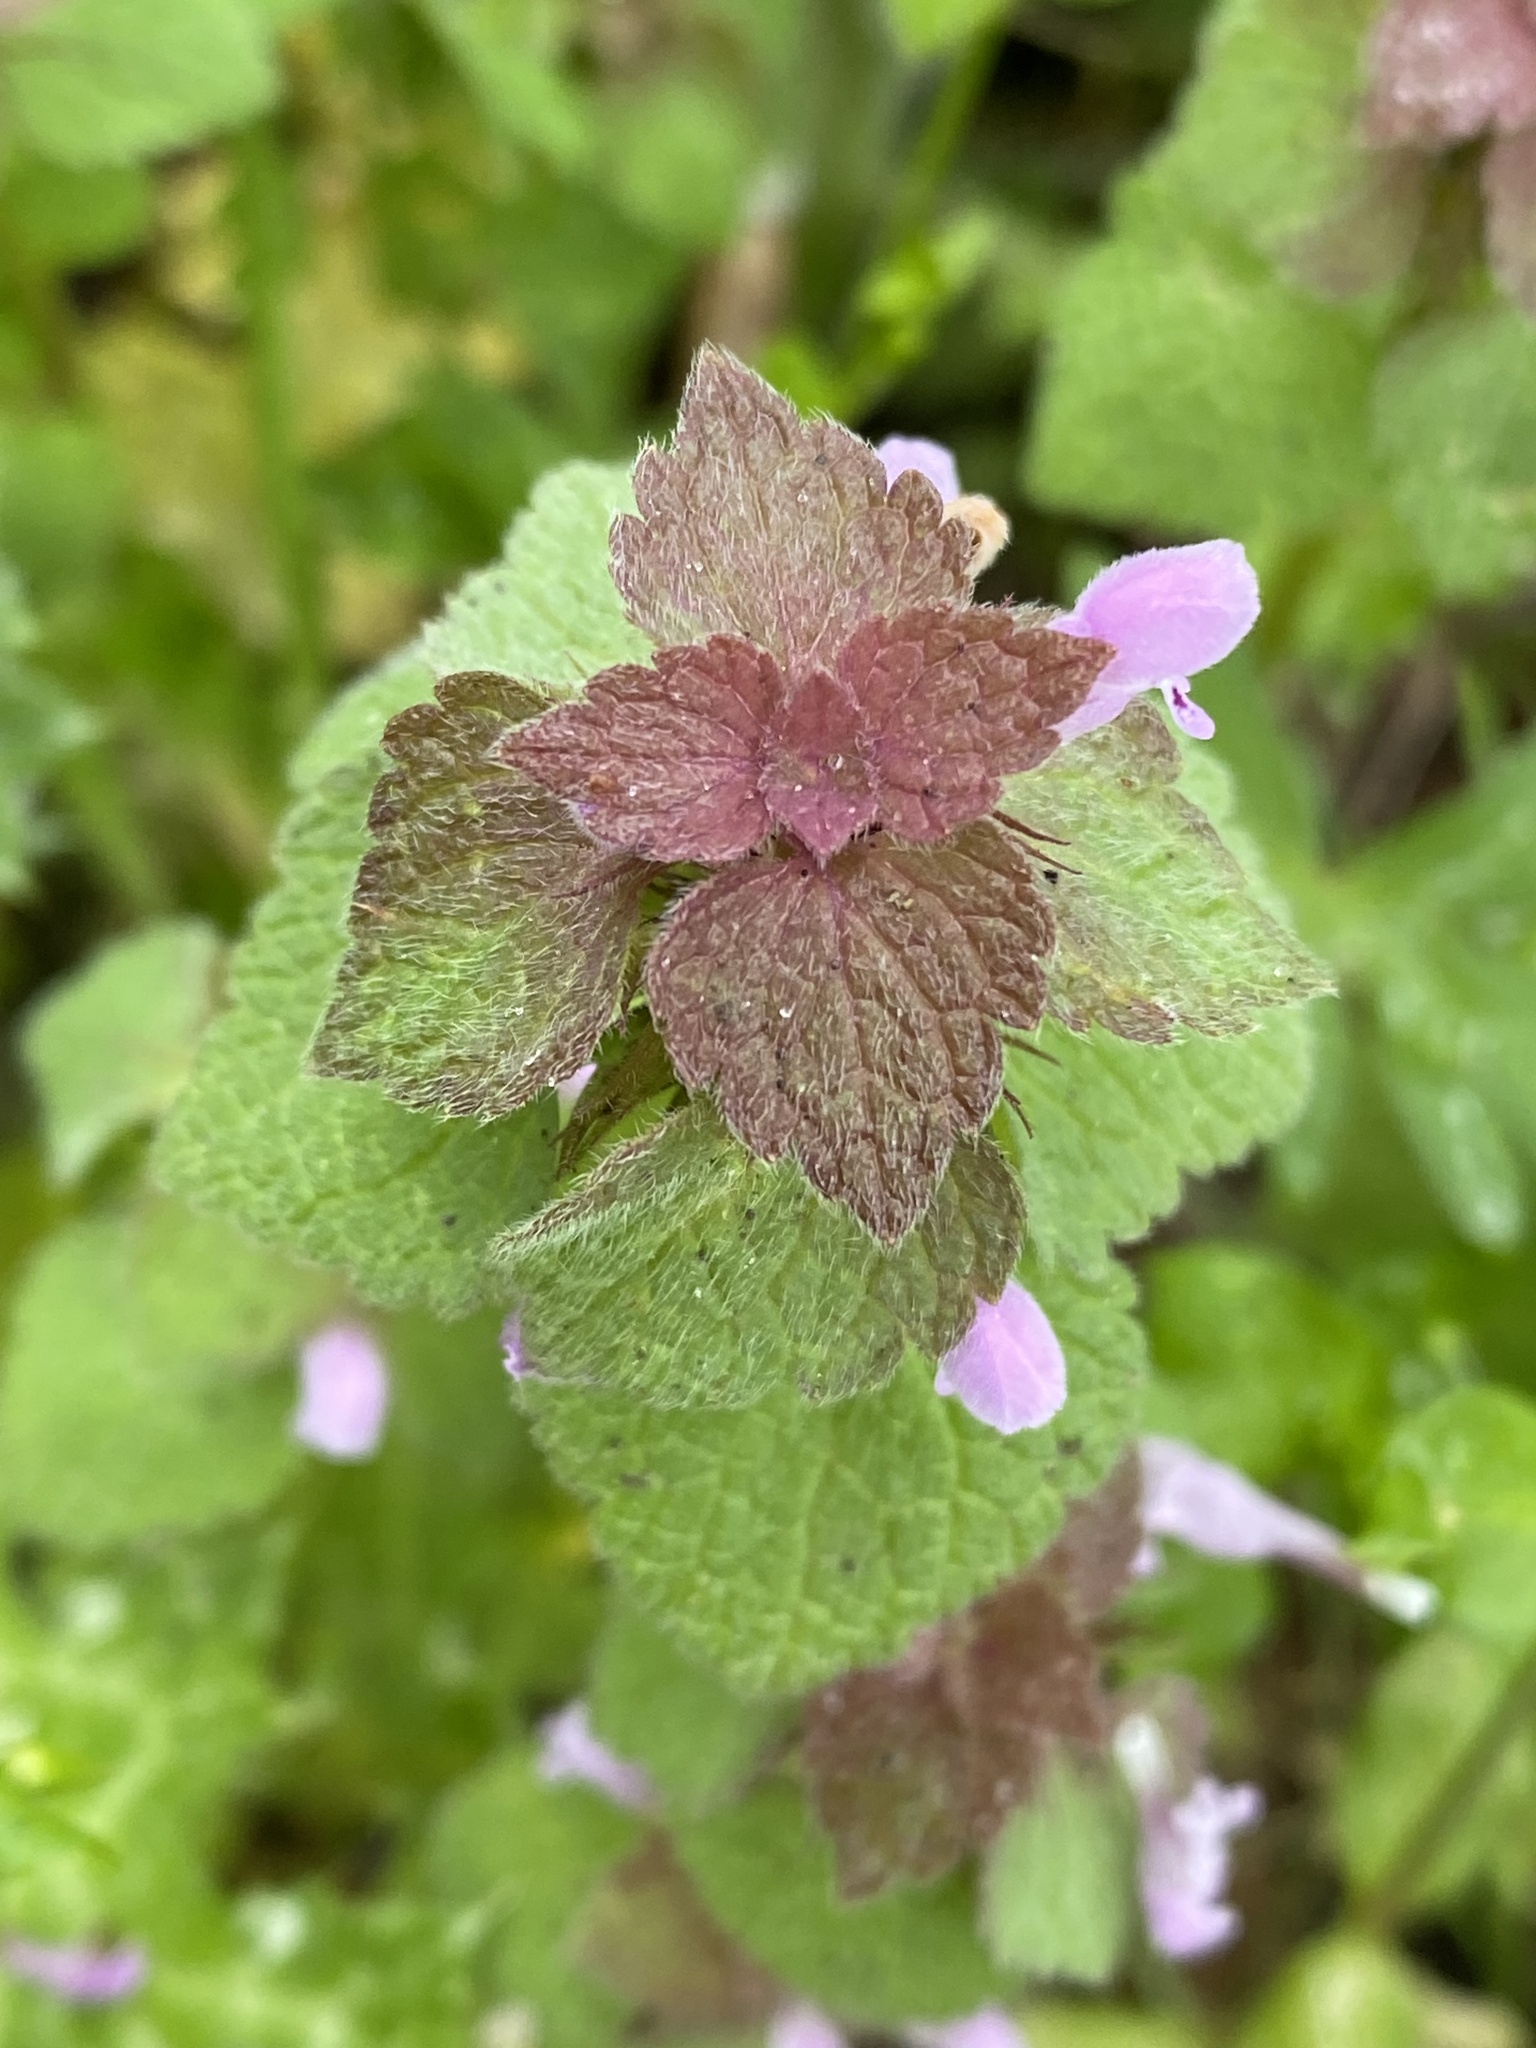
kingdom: Plantae
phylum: Tracheophyta
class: Magnoliopsida
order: Lamiales
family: Lamiaceae
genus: Lamium
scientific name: Lamium purpureum
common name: Red dead-nettle
